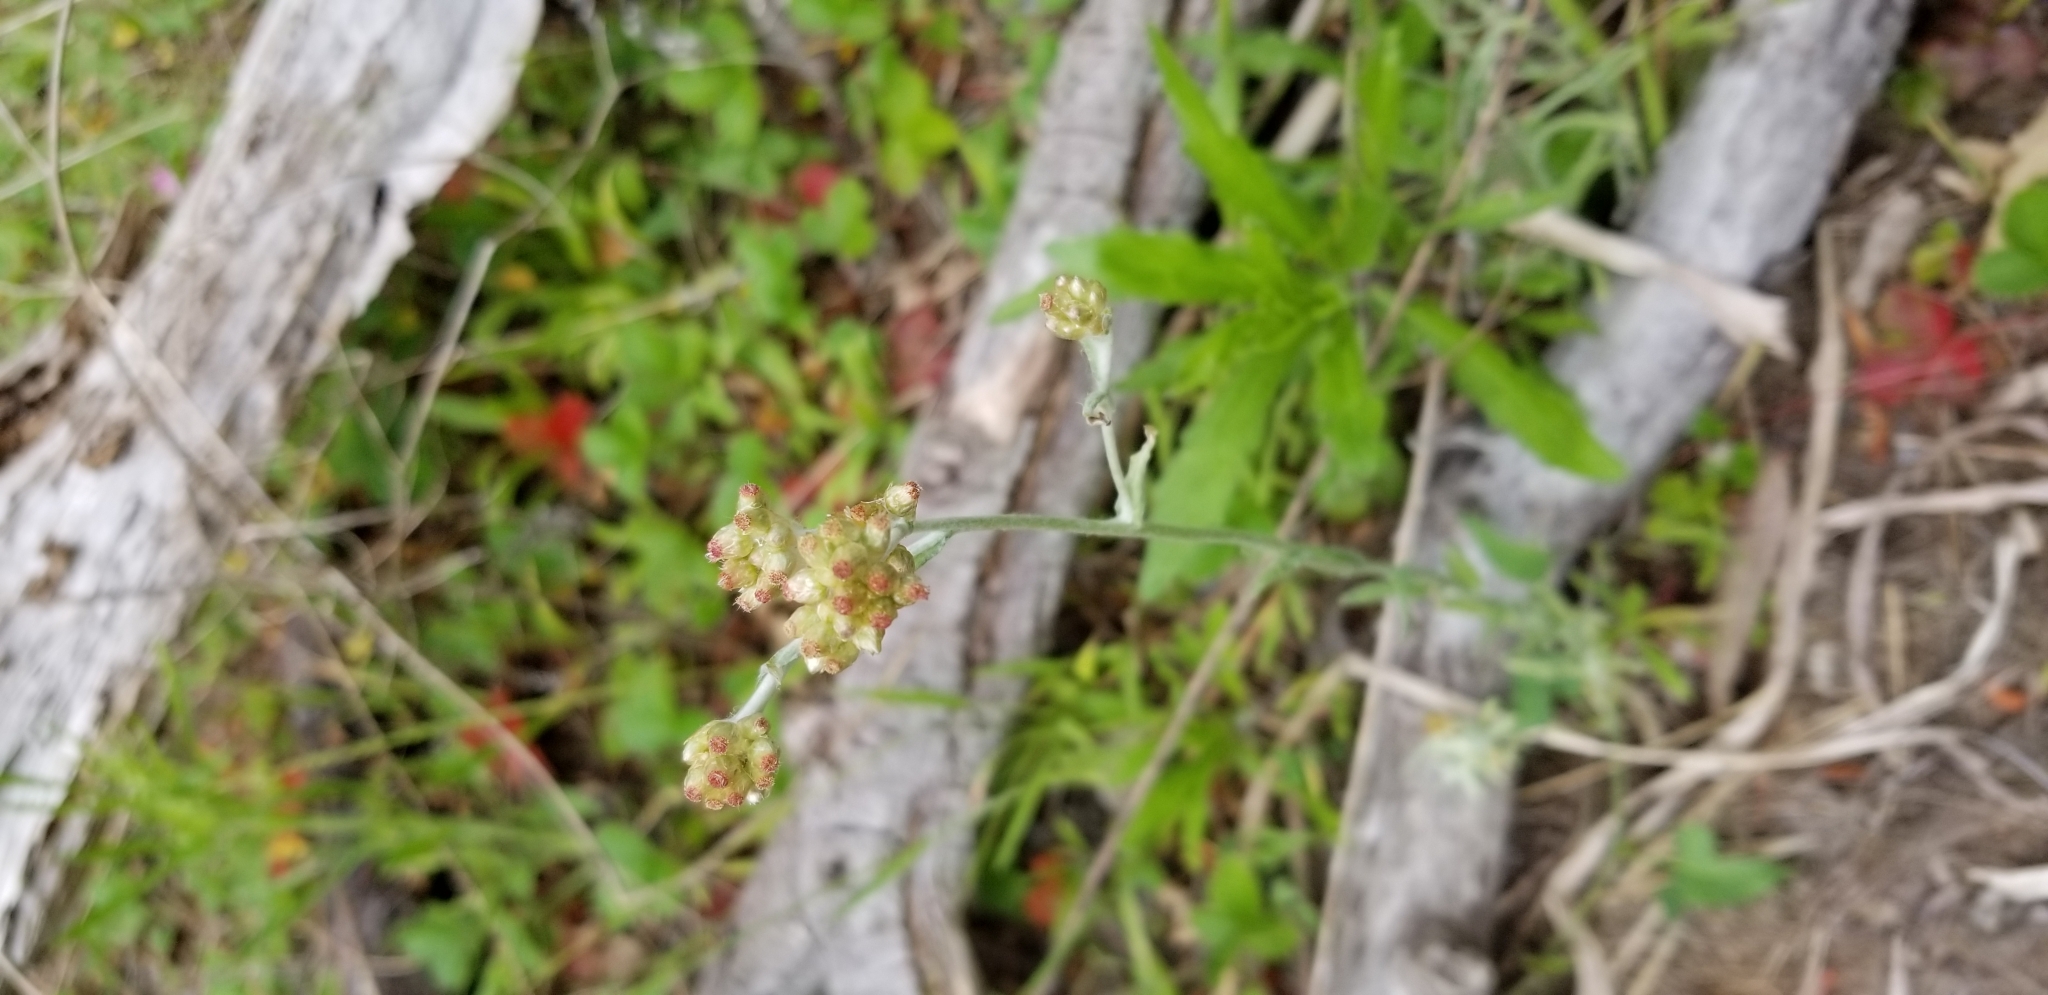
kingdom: Plantae
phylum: Tracheophyta
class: Magnoliopsida
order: Asterales
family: Asteraceae
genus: Helichrysum
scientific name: Helichrysum luteoalbum
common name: Daisy
